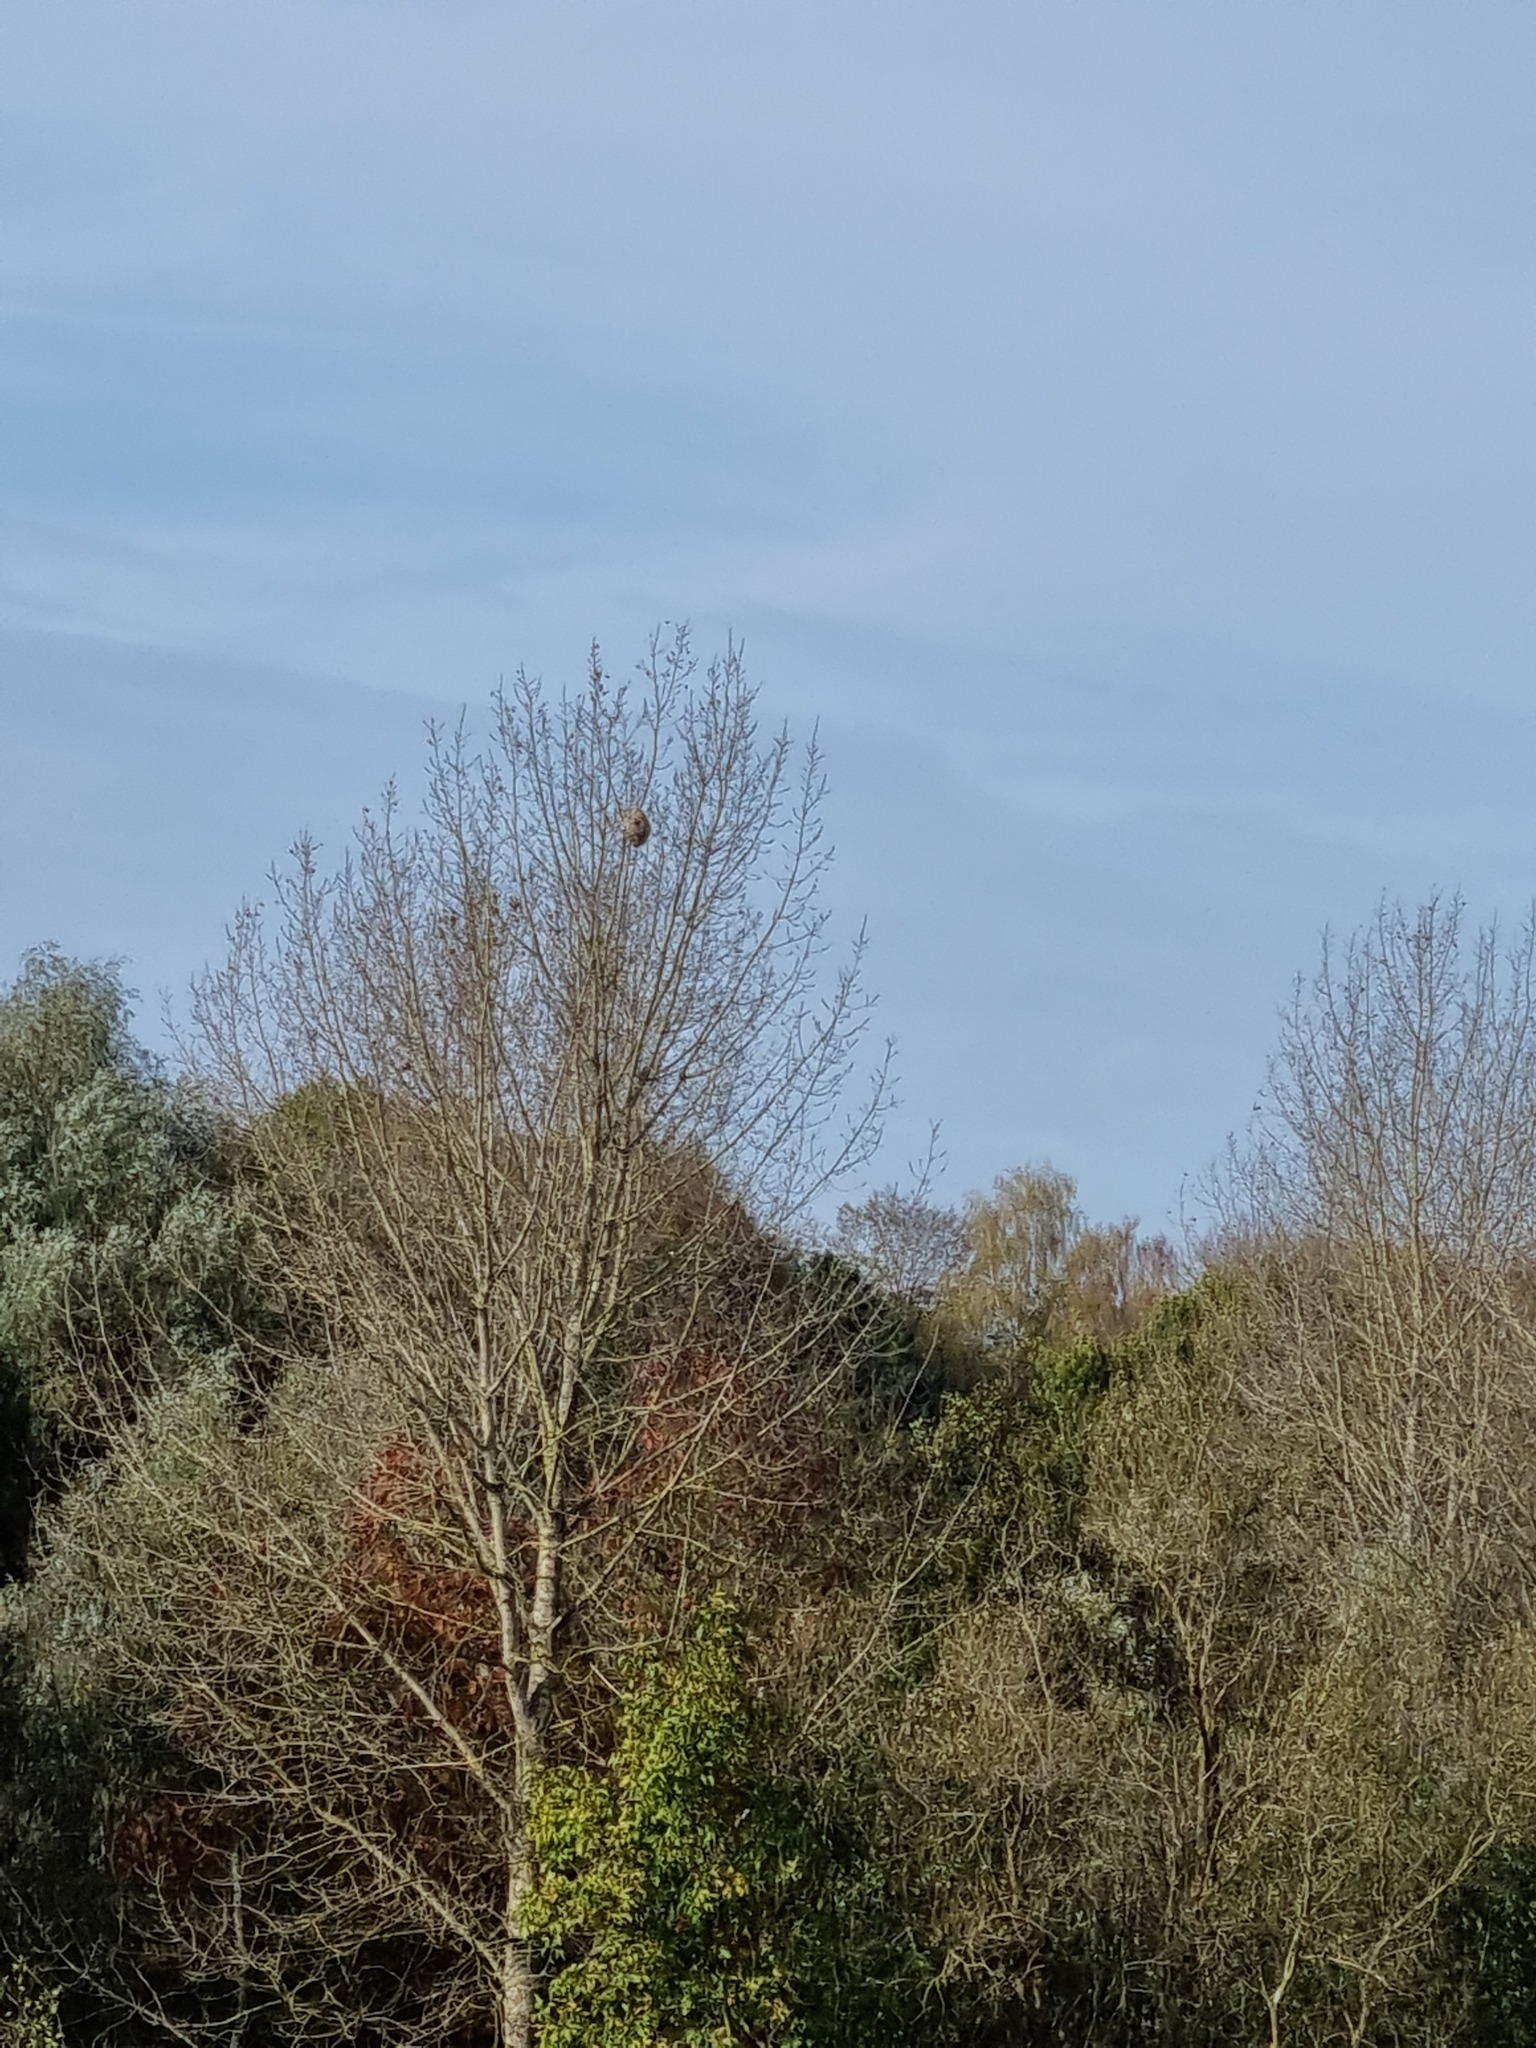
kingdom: Animalia
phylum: Arthropoda
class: Insecta
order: Hymenoptera
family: Vespidae
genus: Vespa
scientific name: Vespa velutina
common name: Asian hornet
